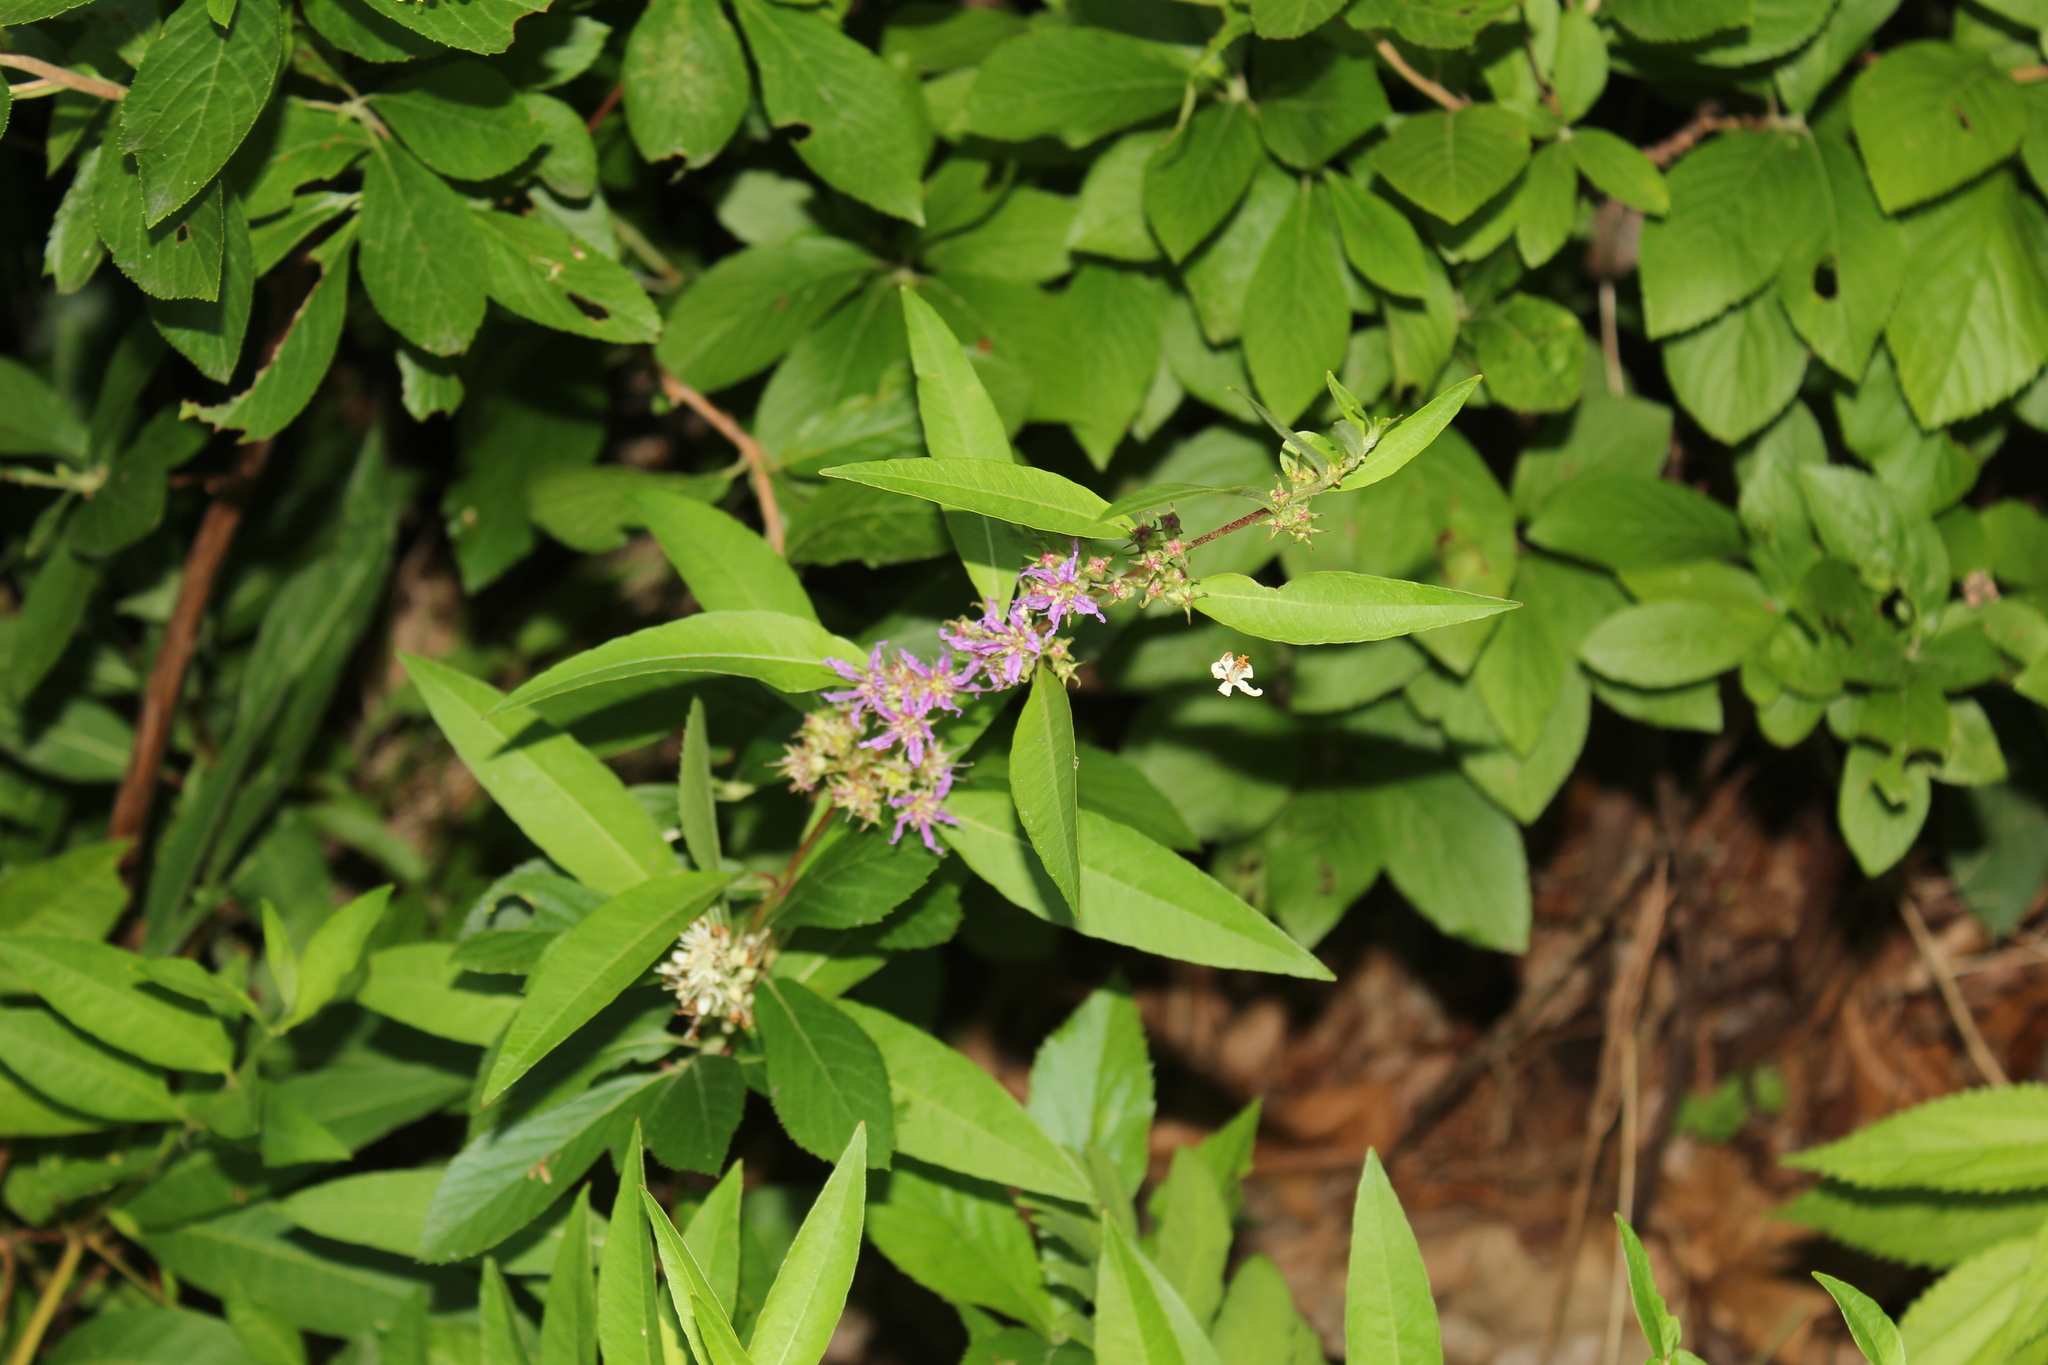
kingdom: Plantae
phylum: Tracheophyta
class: Magnoliopsida
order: Myrtales
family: Lythraceae
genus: Decodon
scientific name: Decodon verticillatus
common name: Hairy swamp loosestrife
